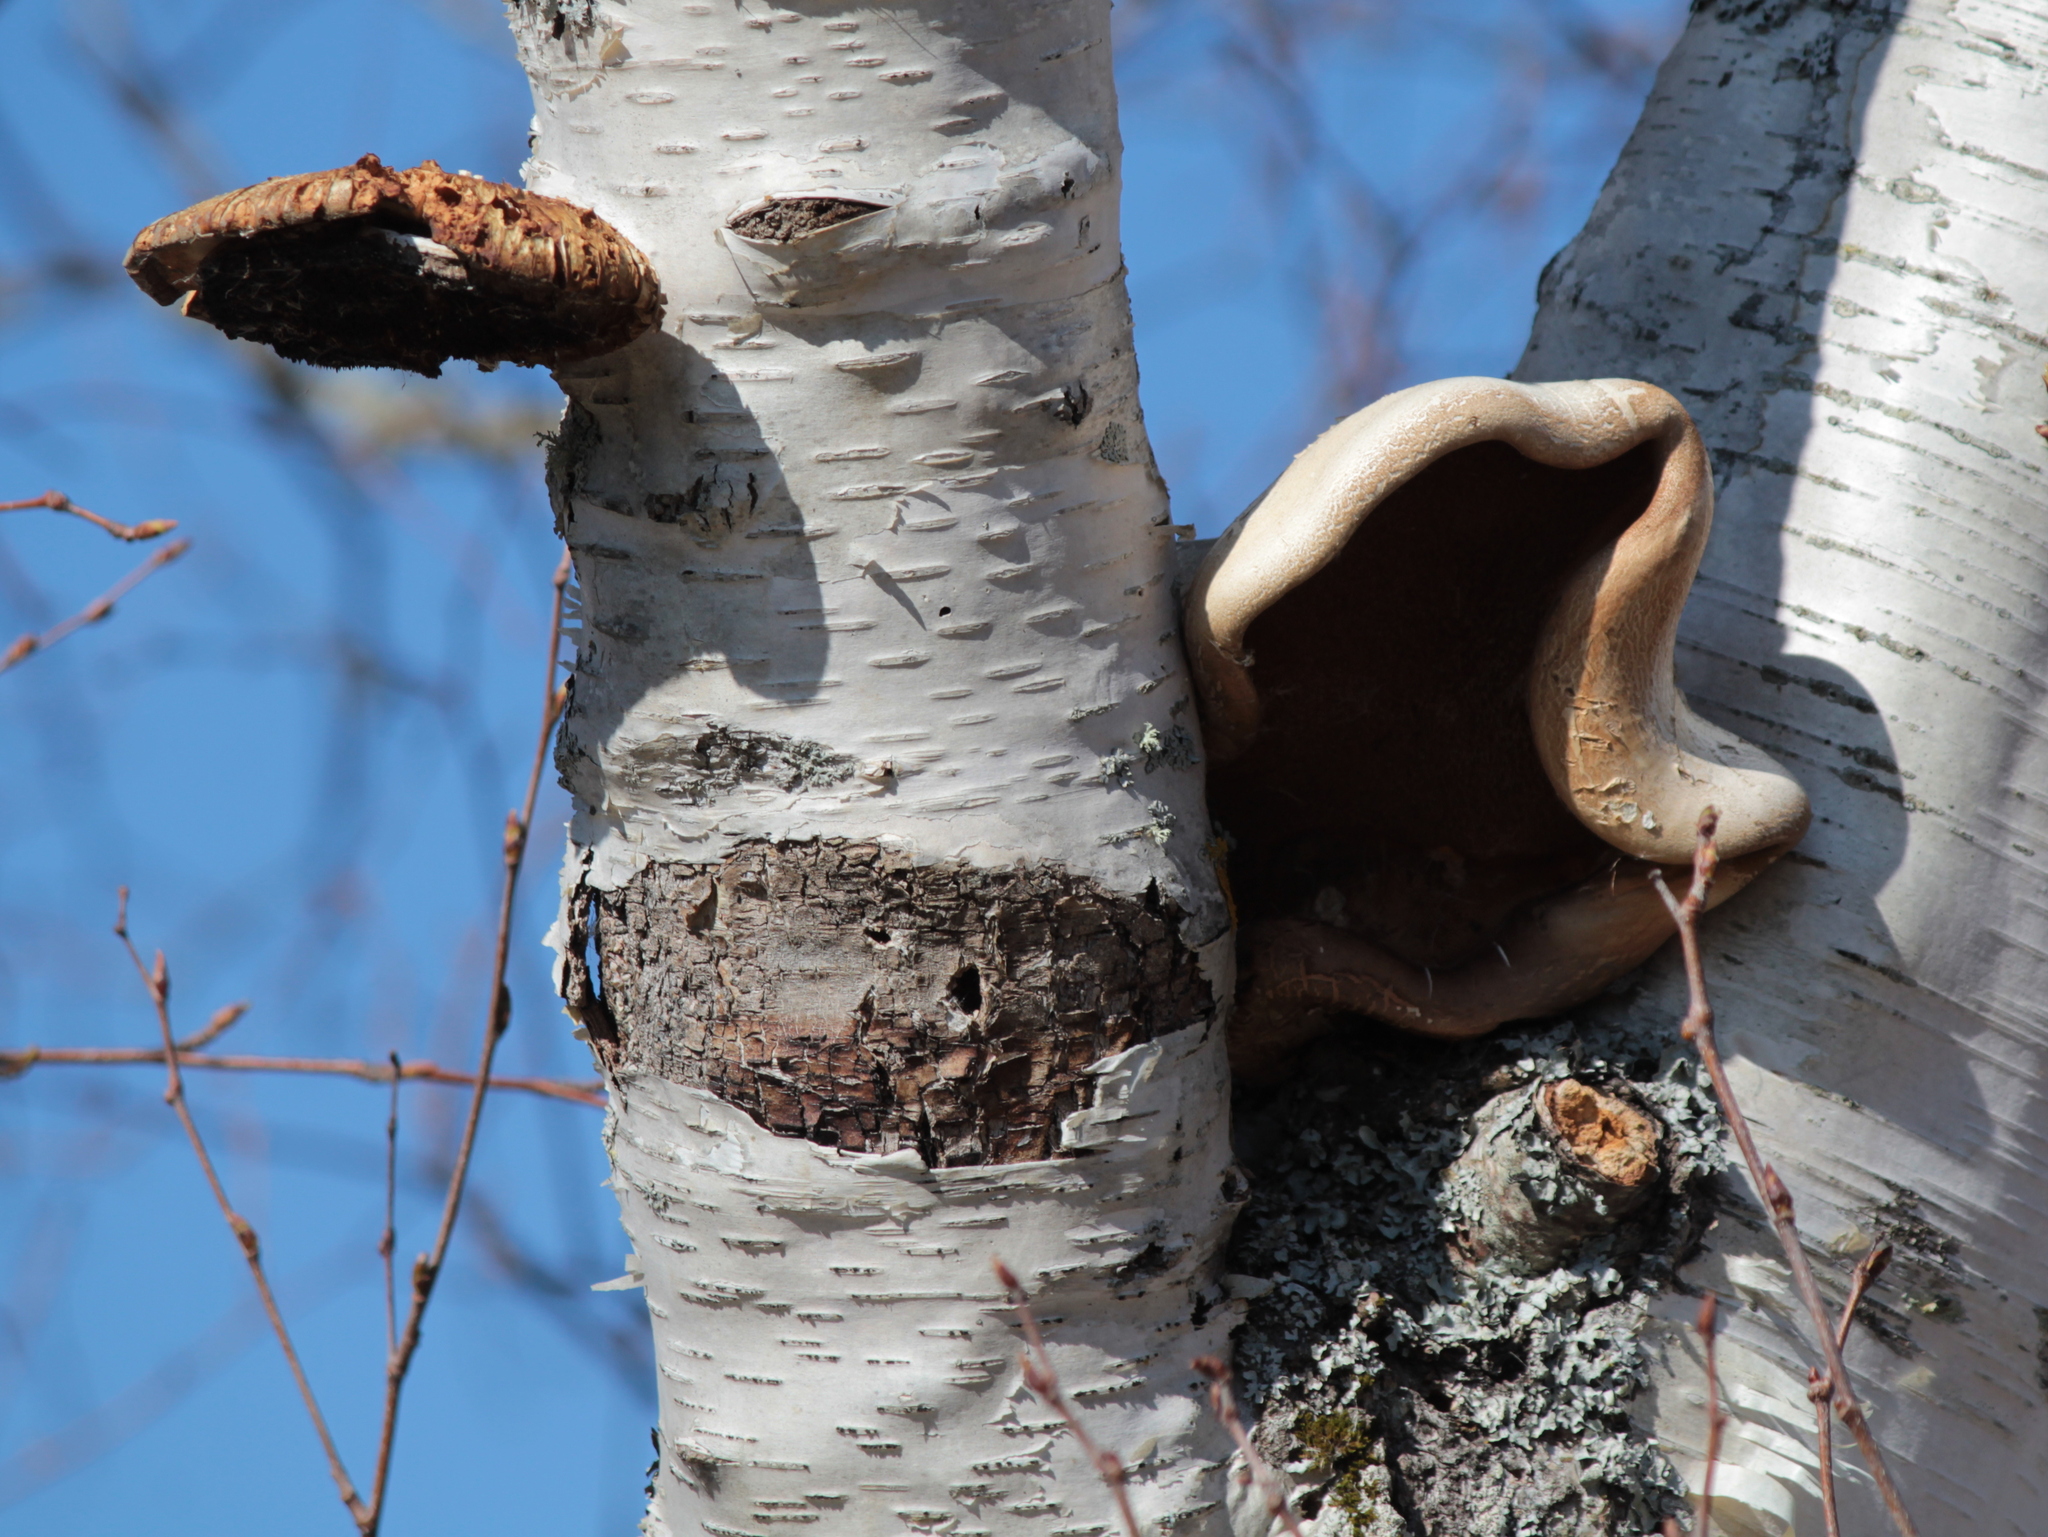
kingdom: Fungi
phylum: Basidiomycota
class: Agaricomycetes
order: Polyporales
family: Fomitopsidaceae
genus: Fomitopsis
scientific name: Fomitopsis betulina
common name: Birch polypore
